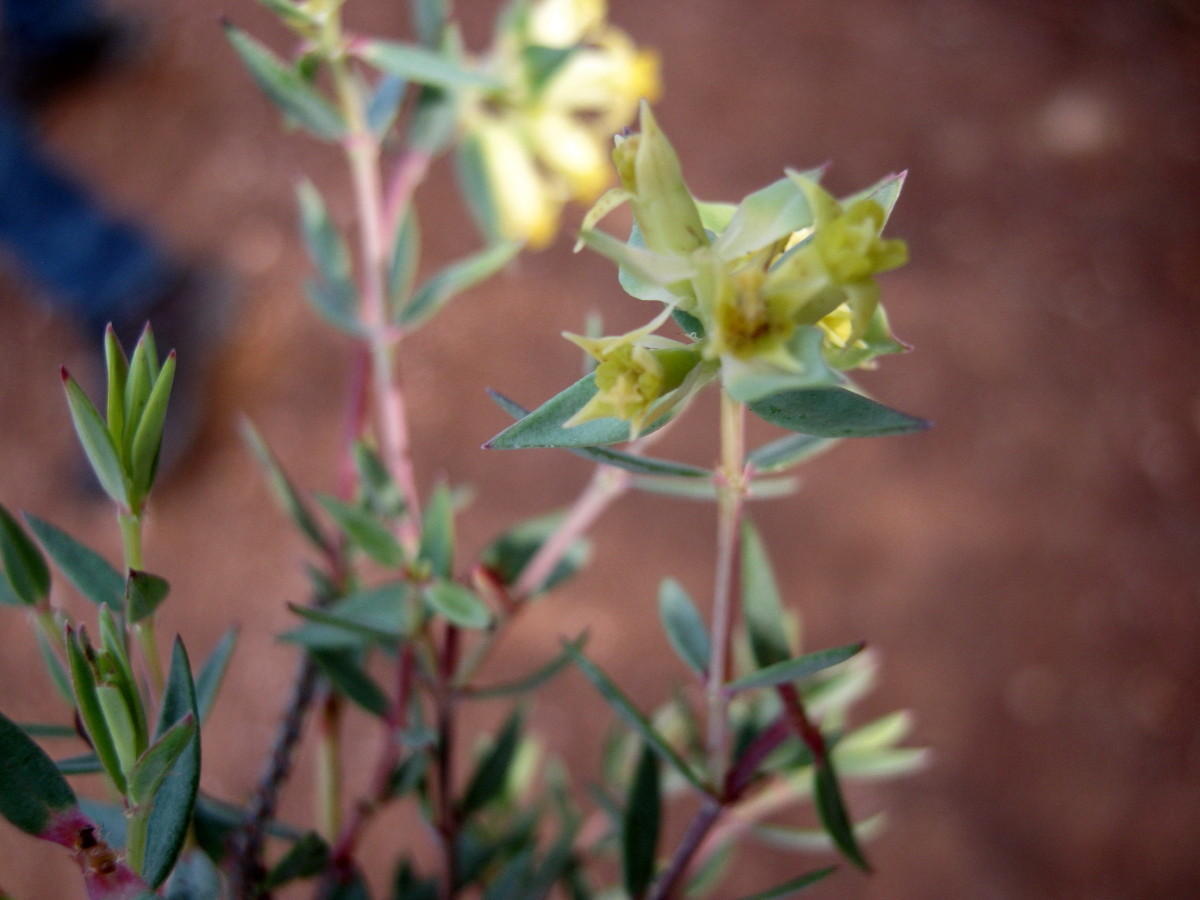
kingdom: Plantae
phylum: Tracheophyta
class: Magnoliopsida
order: Myrtales
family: Penaeaceae
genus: Penaea
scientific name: Penaea acutifolia
